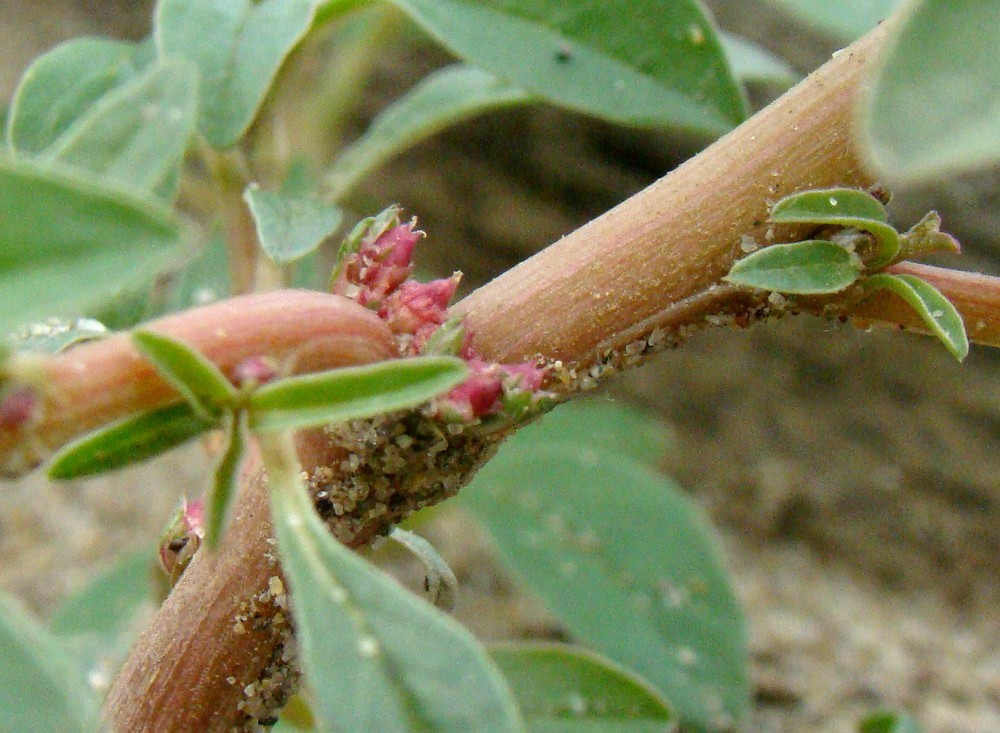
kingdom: Plantae
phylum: Tracheophyta
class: Magnoliopsida
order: Caryophyllales
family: Amaranthaceae
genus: Amaranthus
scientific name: Amaranthus blitoides
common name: Prostrate pigweed
